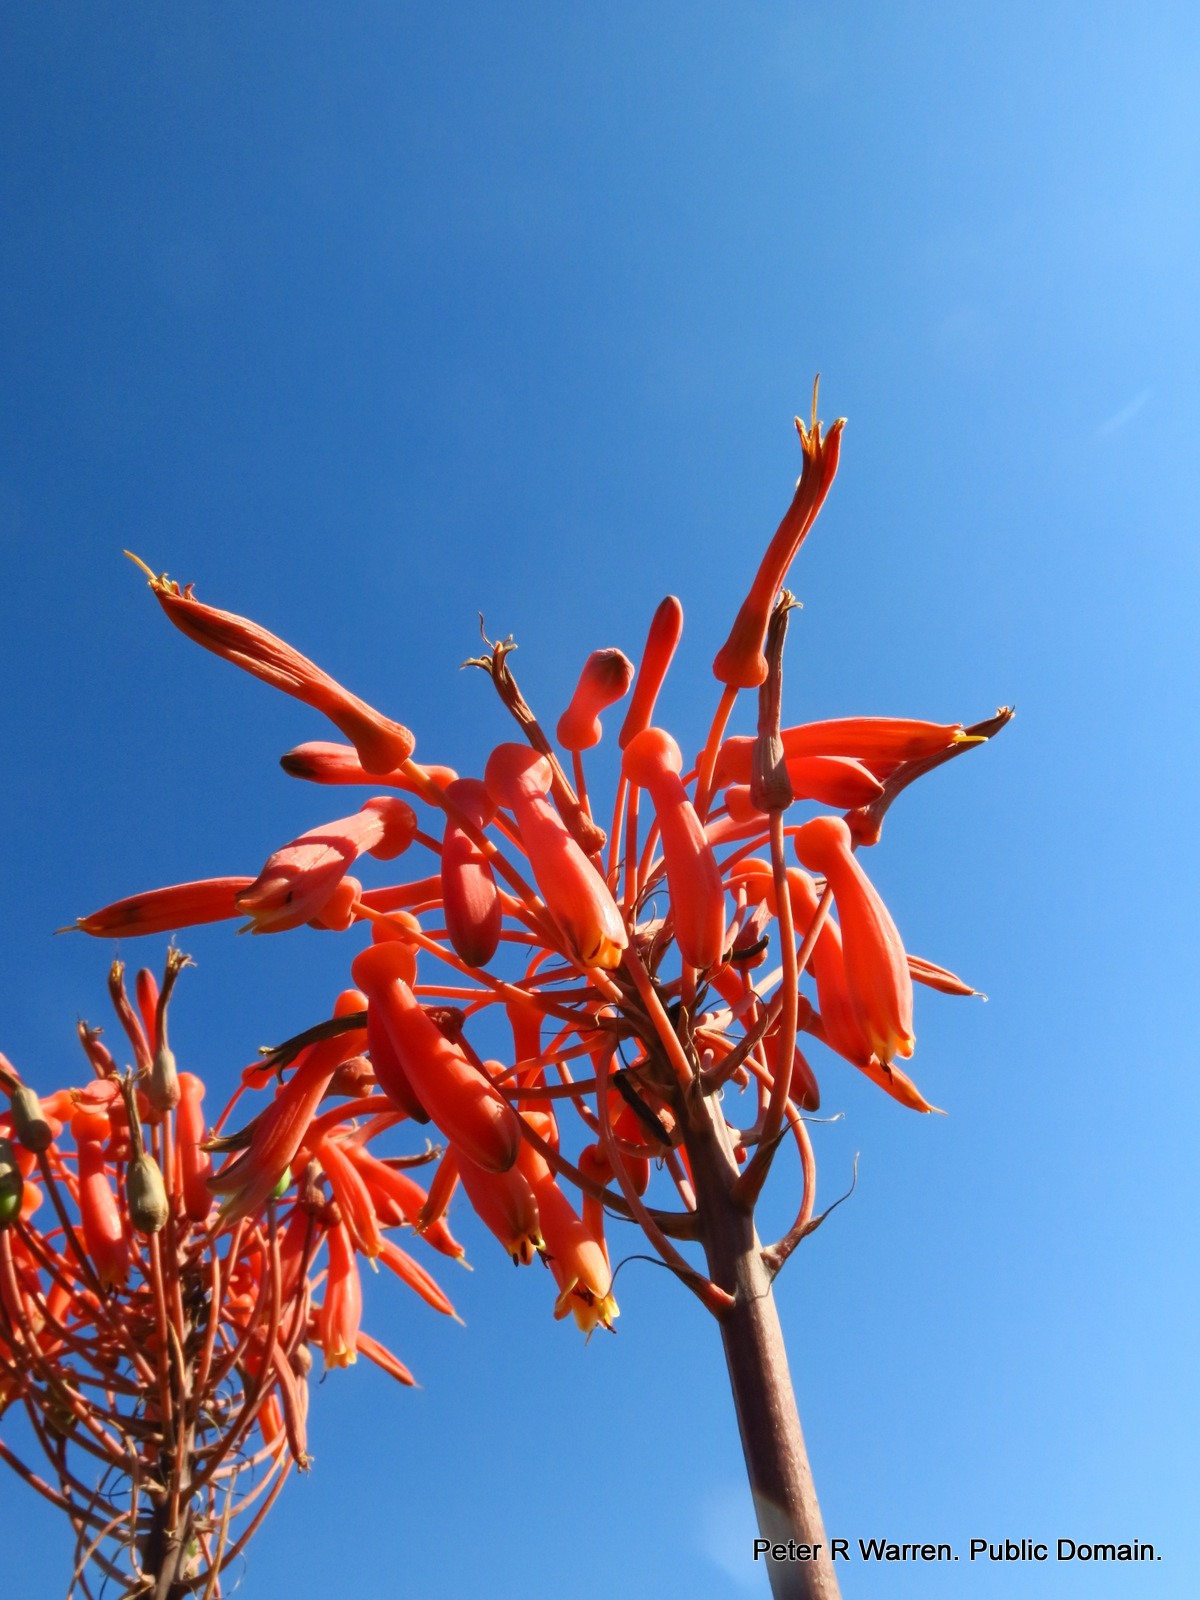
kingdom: Plantae
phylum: Tracheophyta
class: Liliopsida
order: Asparagales
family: Asphodelaceae
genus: Aloe
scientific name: Aloe maculata
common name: Broadleaf aloe
